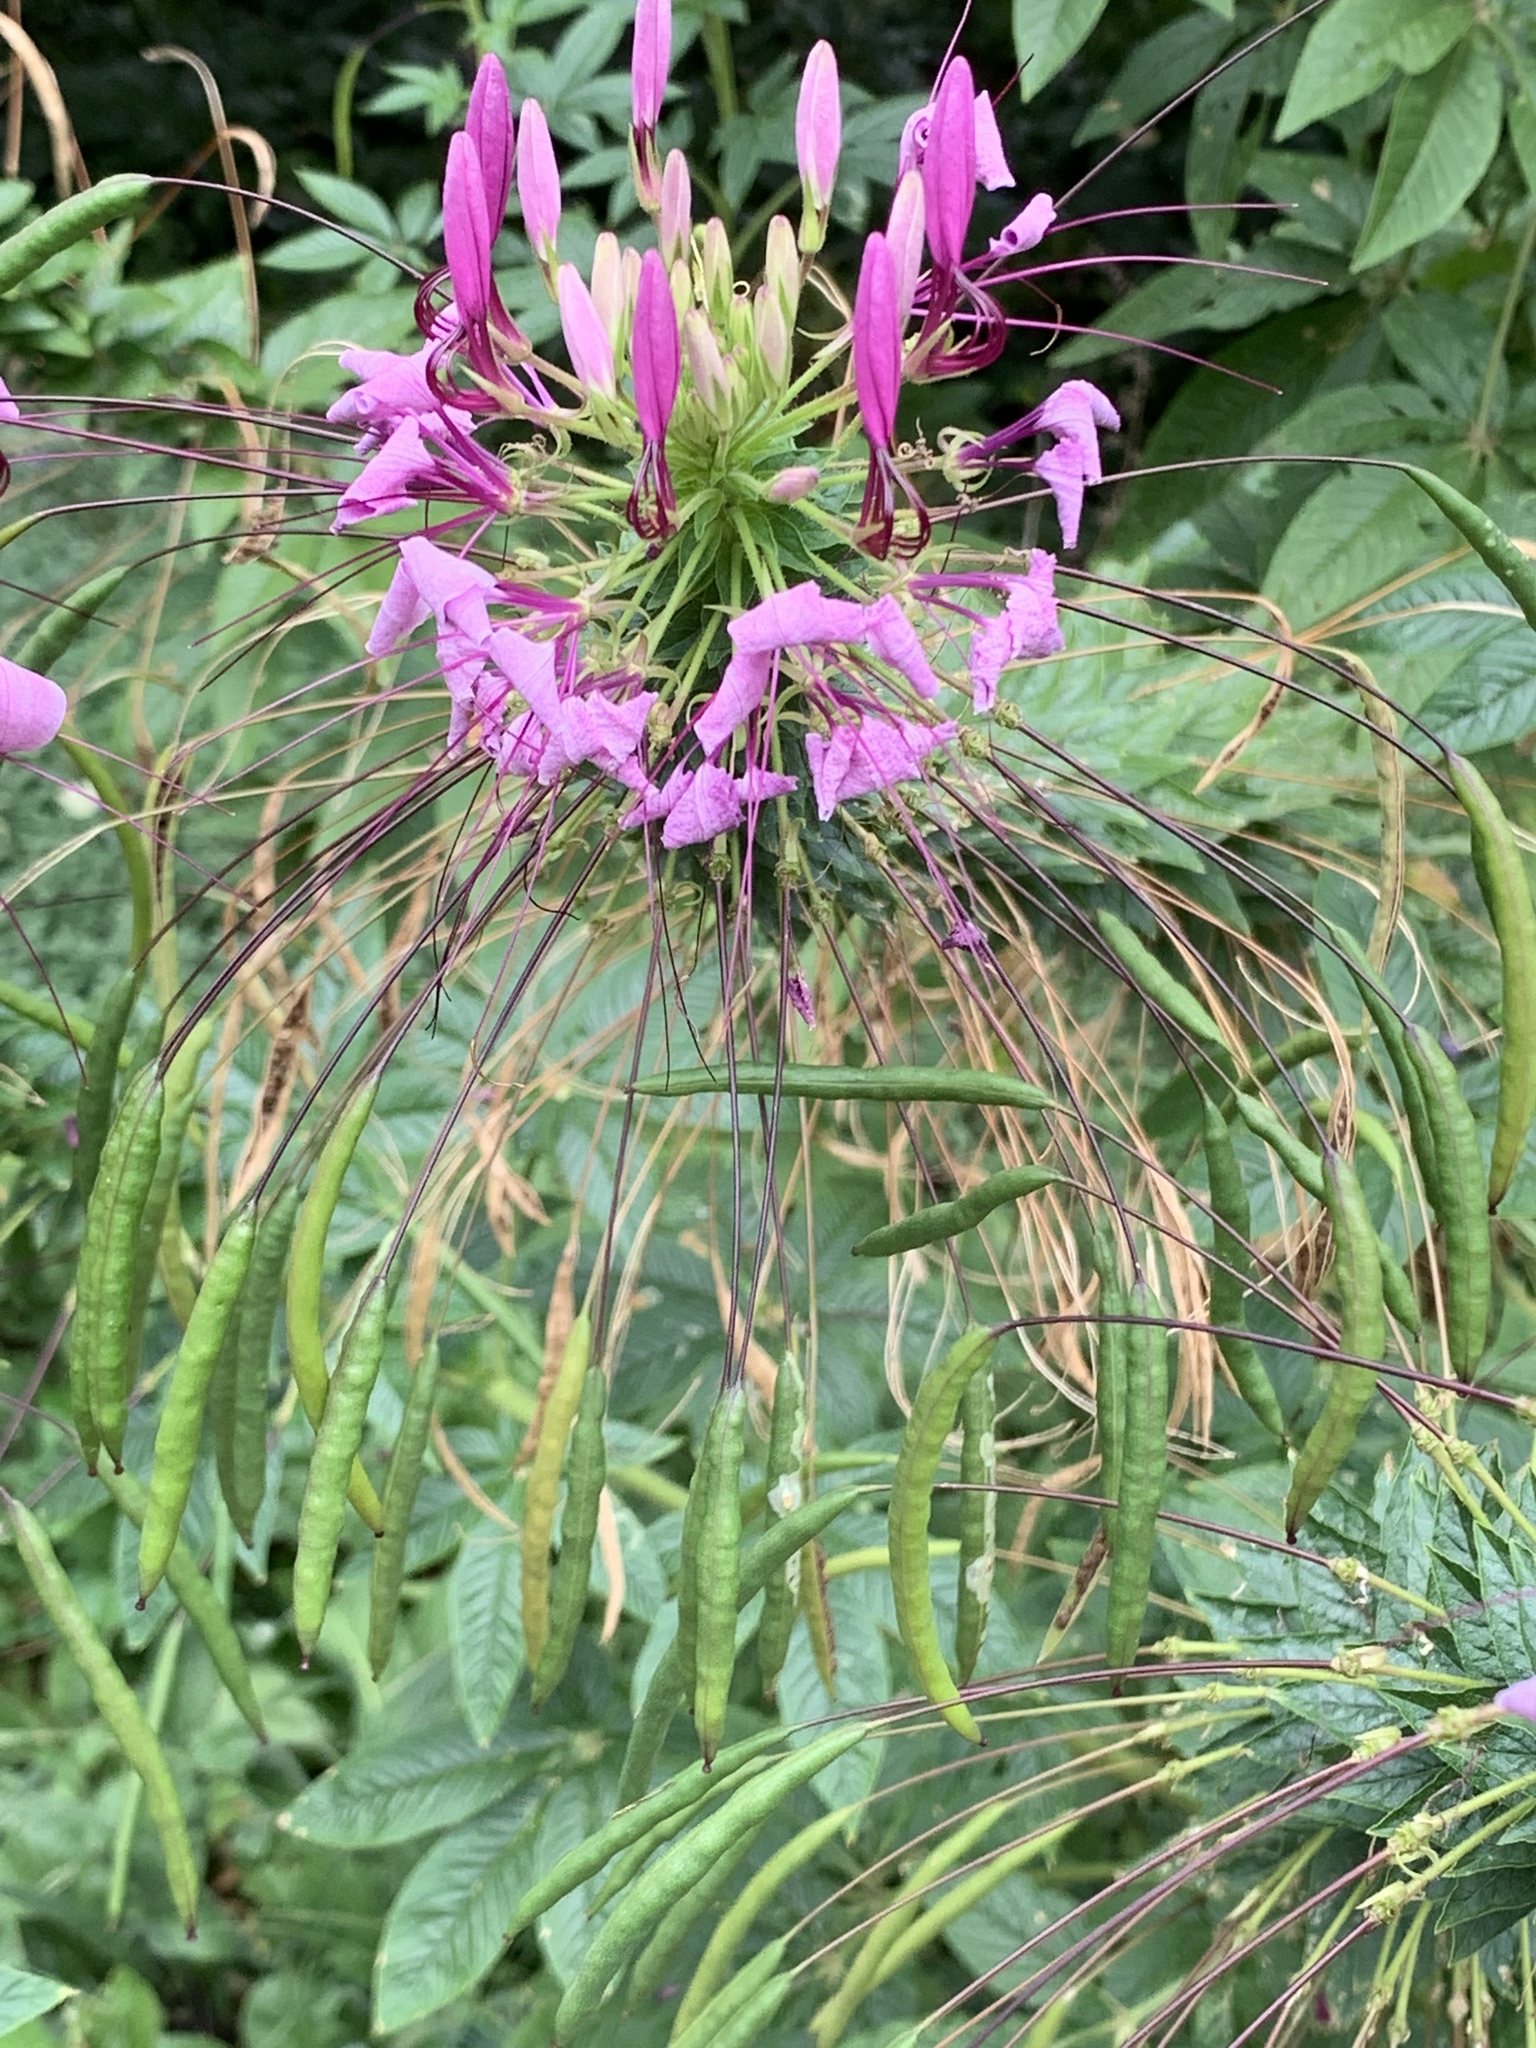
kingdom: Plantae
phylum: Tracheophyta
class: Magnoliopsida
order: Brassicales
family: Cleomaceae
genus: Tarenaya
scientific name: Tarenaya houtteana
